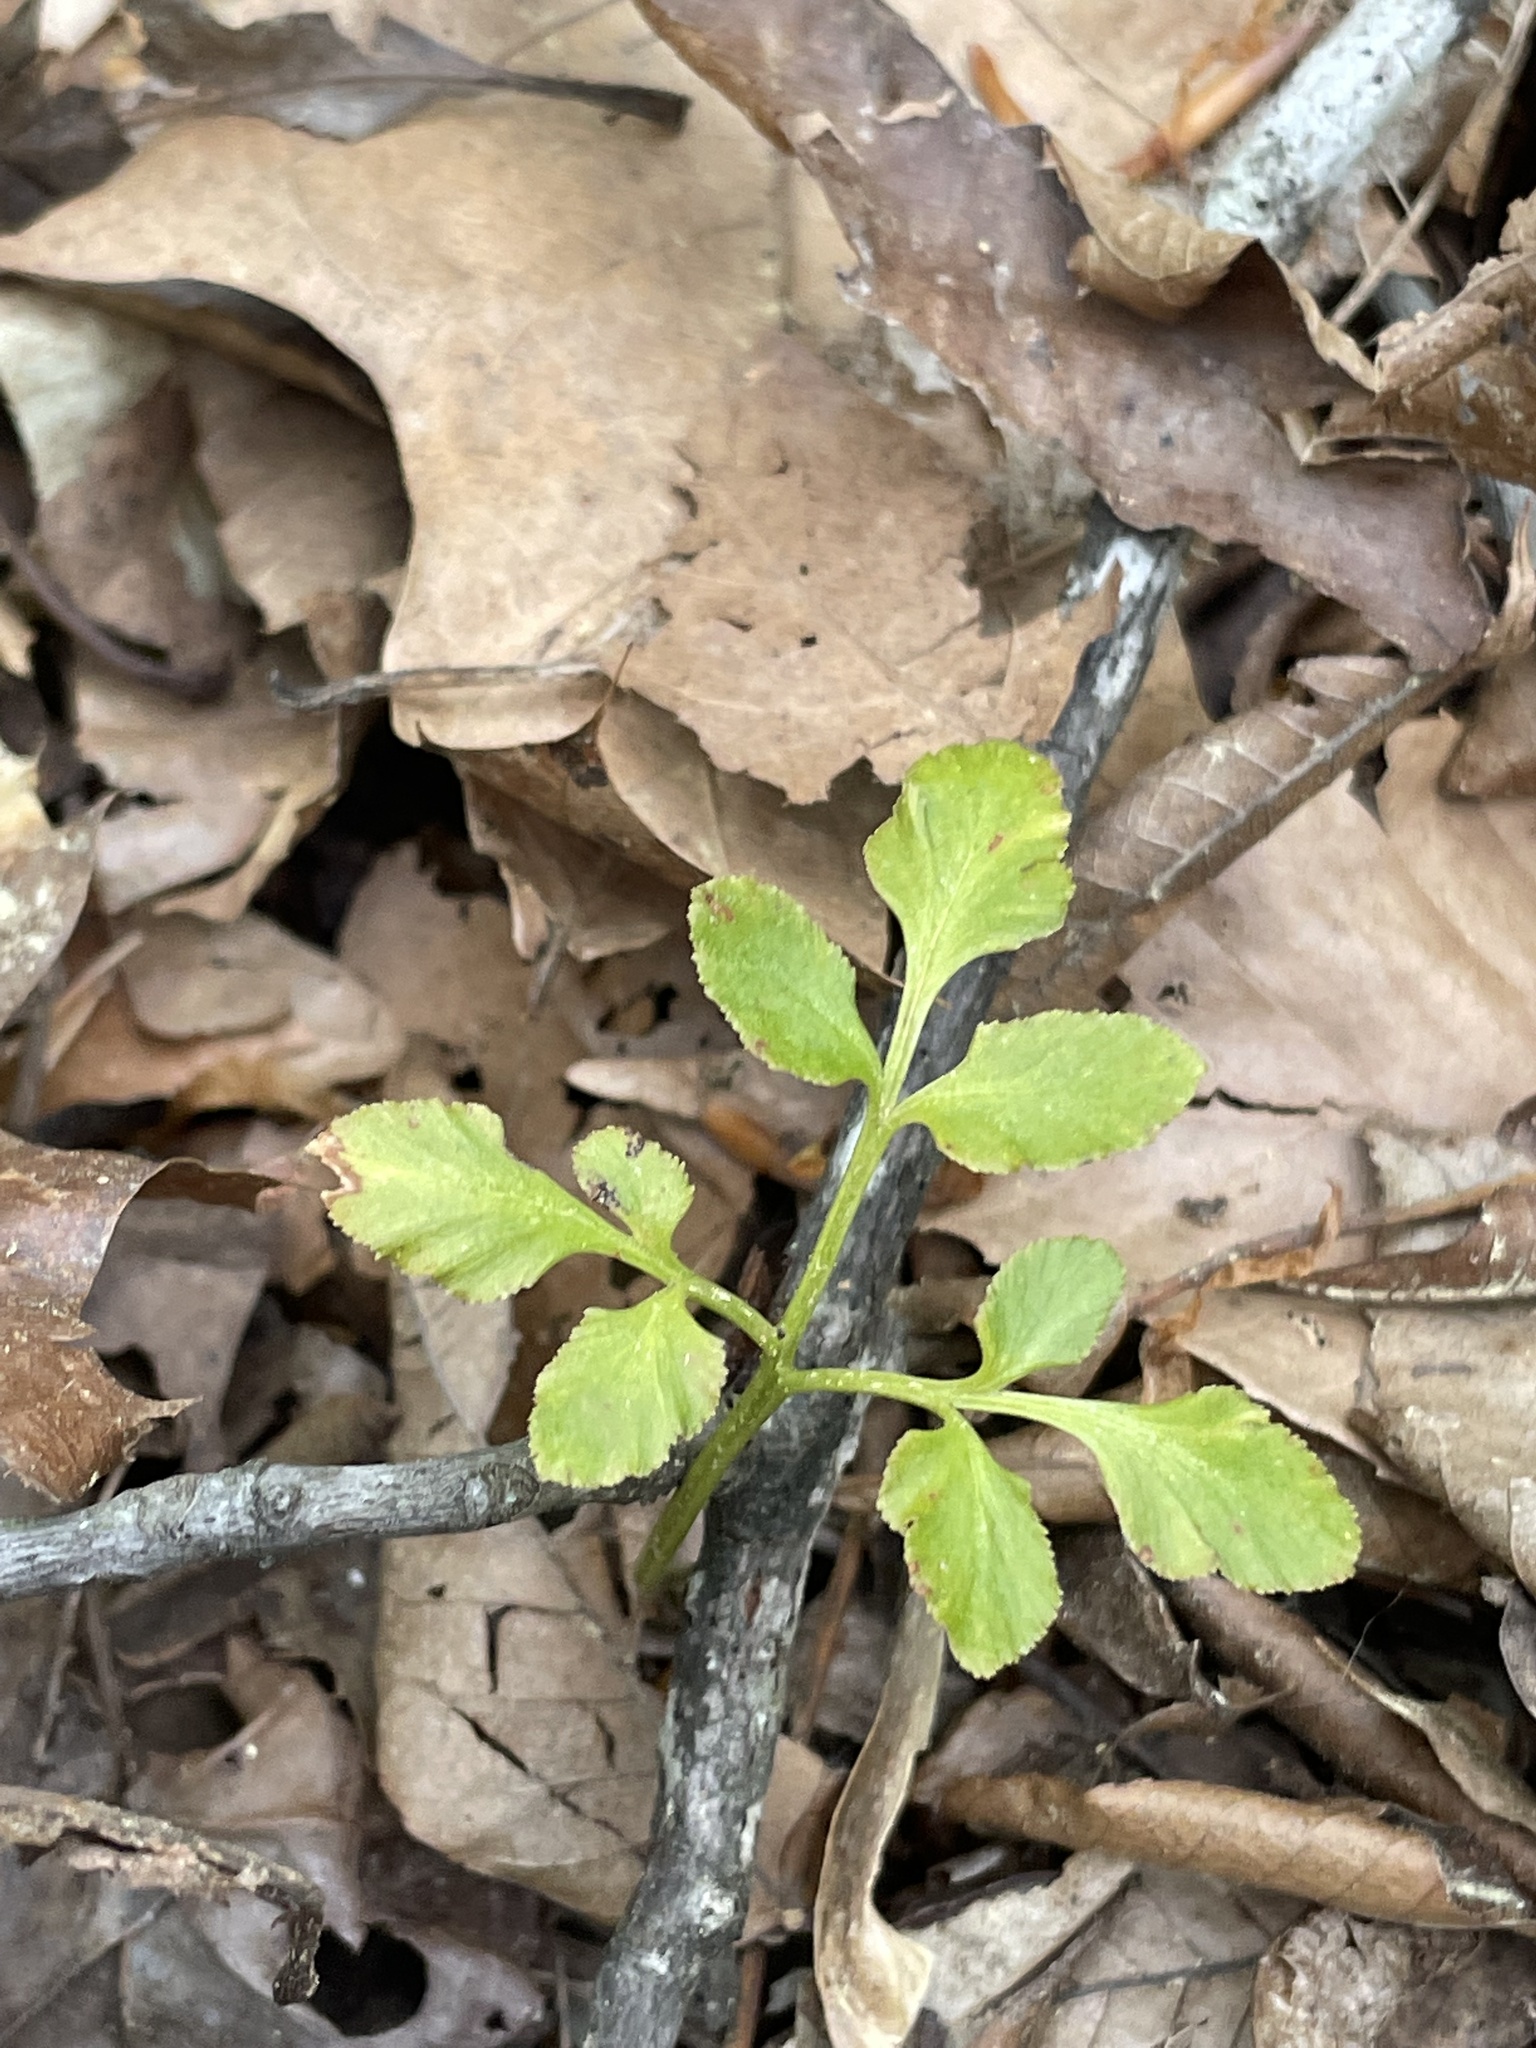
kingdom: Plantae
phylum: Tracheophyta
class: Polypodiopsida
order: Ophioglossales
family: Ophioglossaceae
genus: Sceptridium
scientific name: Sceptridium biternatum
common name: Sparse-lobed grapefern
